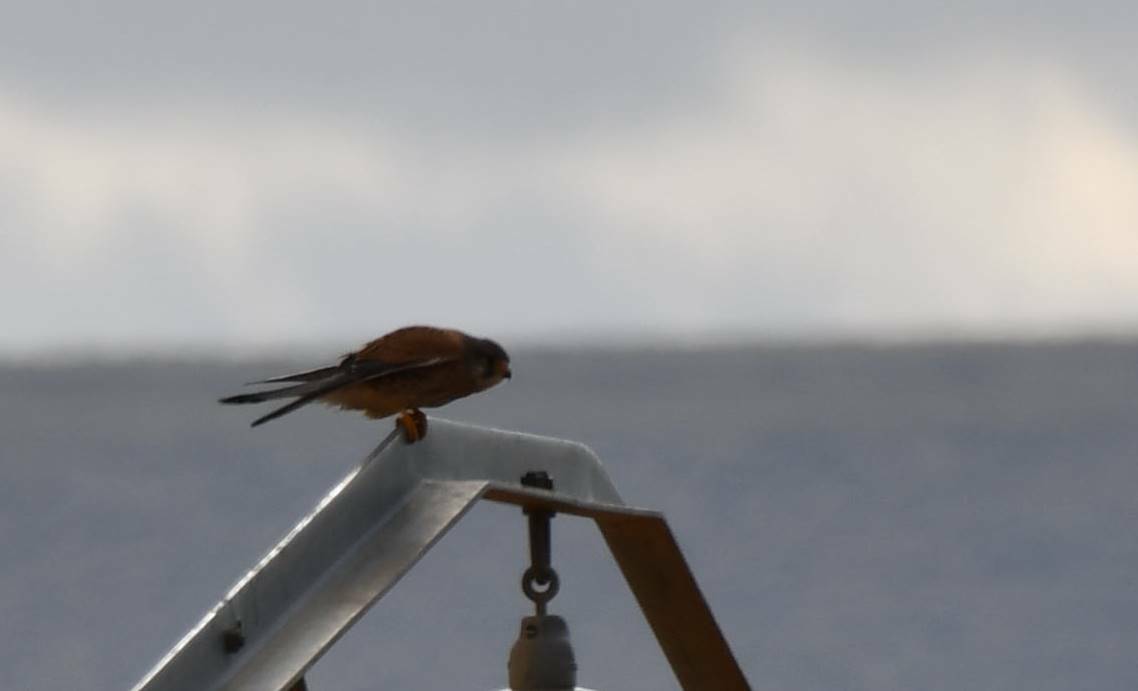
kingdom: Animalia
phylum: Chordata
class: Aves
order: Falconiformes
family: Falconidae
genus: Falco
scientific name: Falco tinnunculus
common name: Common kestrel
